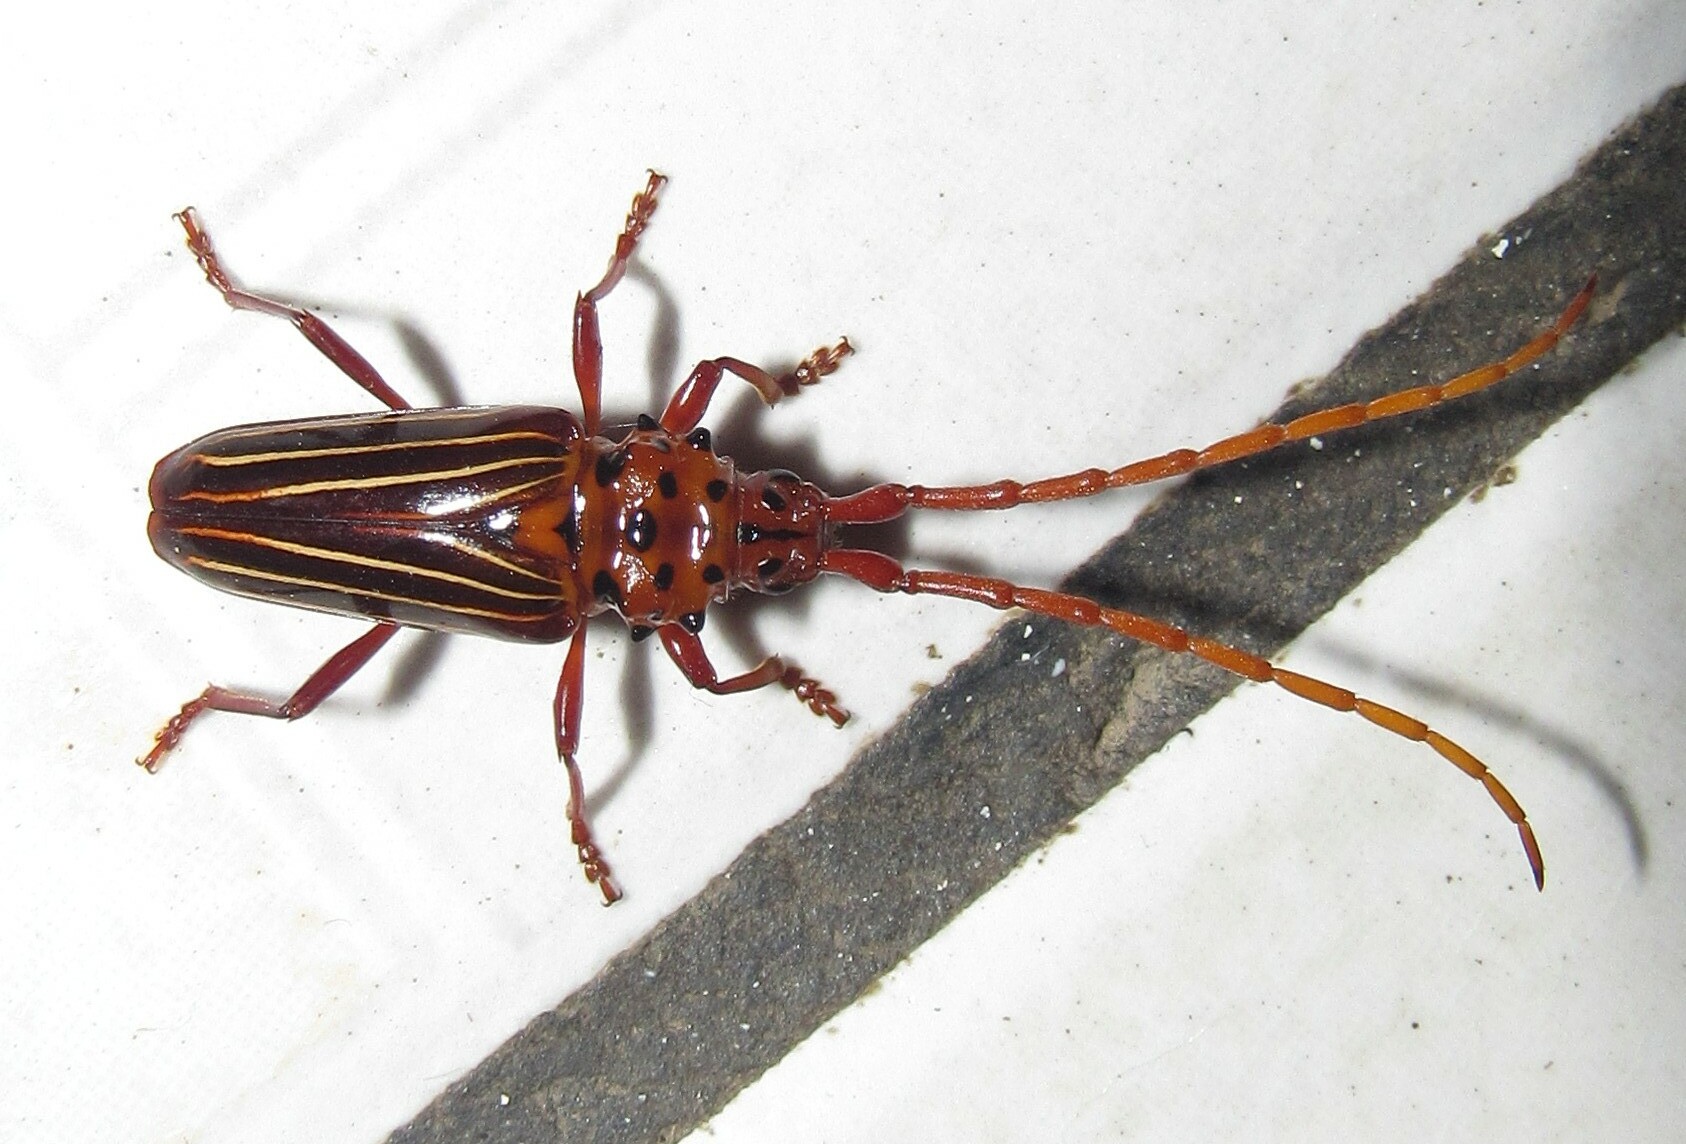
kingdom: Animalia
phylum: Arthropoda
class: Insecta
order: Coleoptera
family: Cerambycidae
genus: Chydarteres
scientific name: Chydarteres striatus
